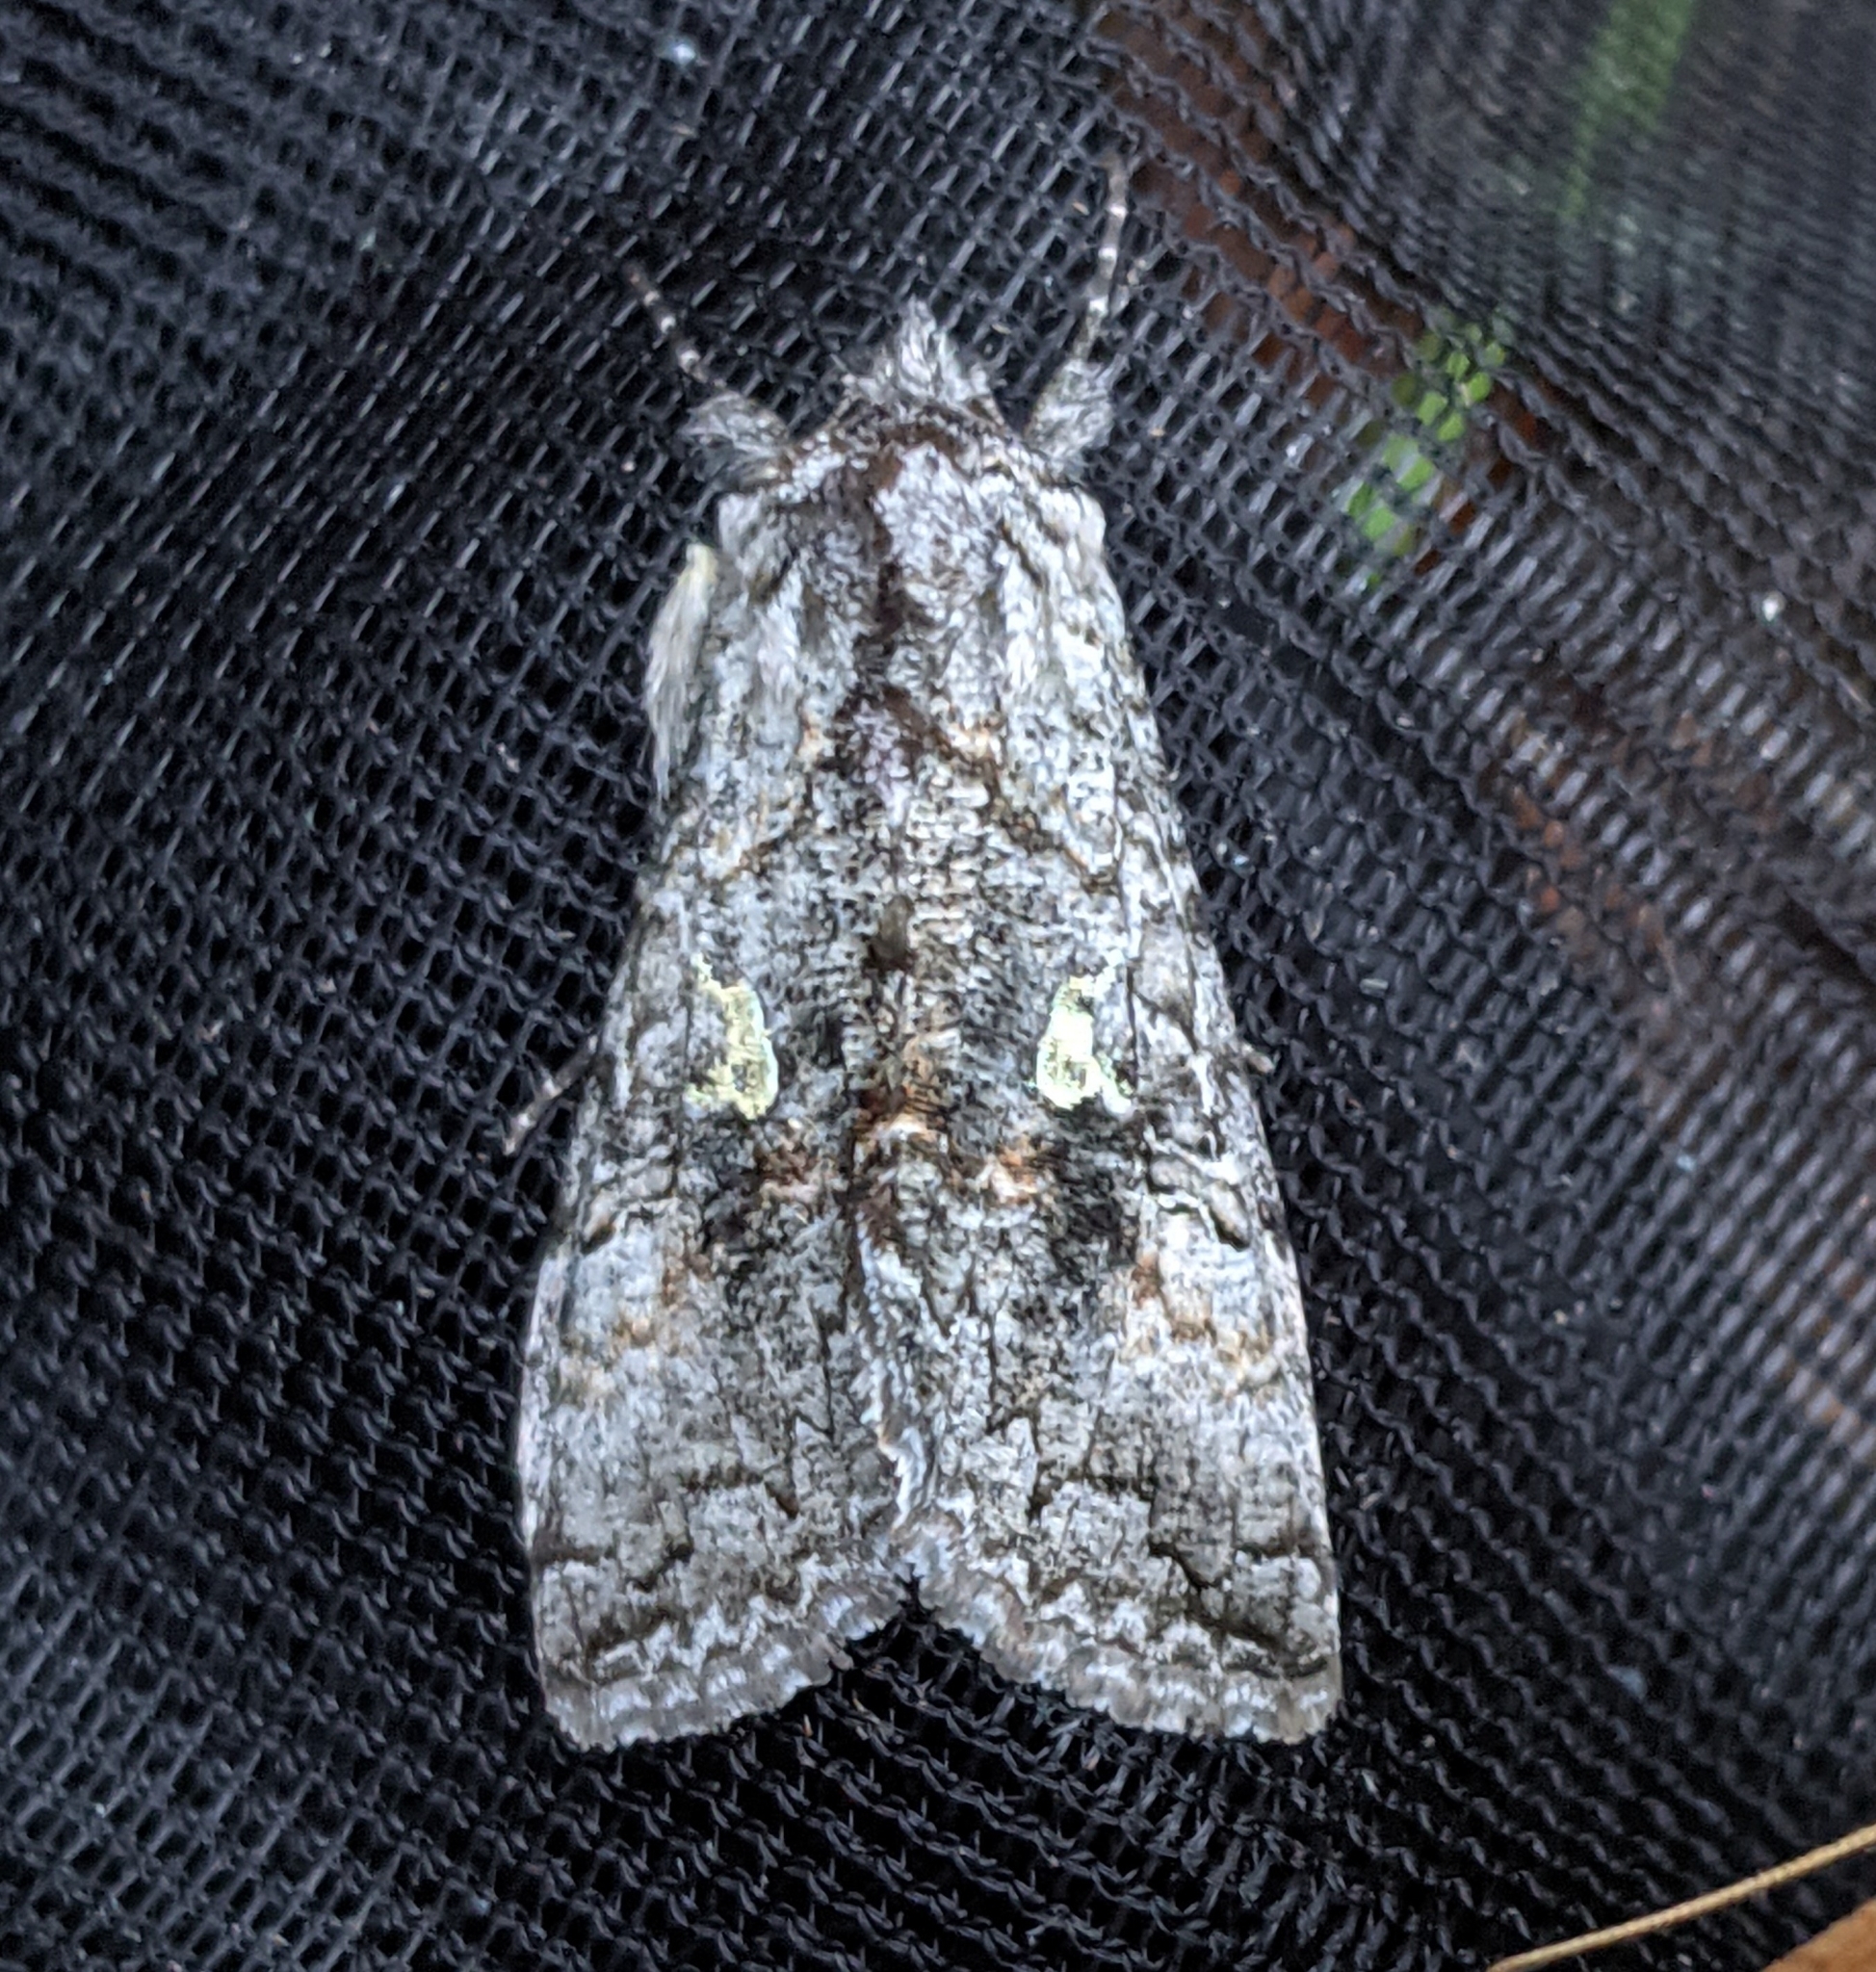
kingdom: Animalia
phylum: Arthropoda
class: Insecta
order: Lepidoptera
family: Noctuidae
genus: Syngrapha
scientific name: Syngrapha viridisigma
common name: Spruce false looper moth
